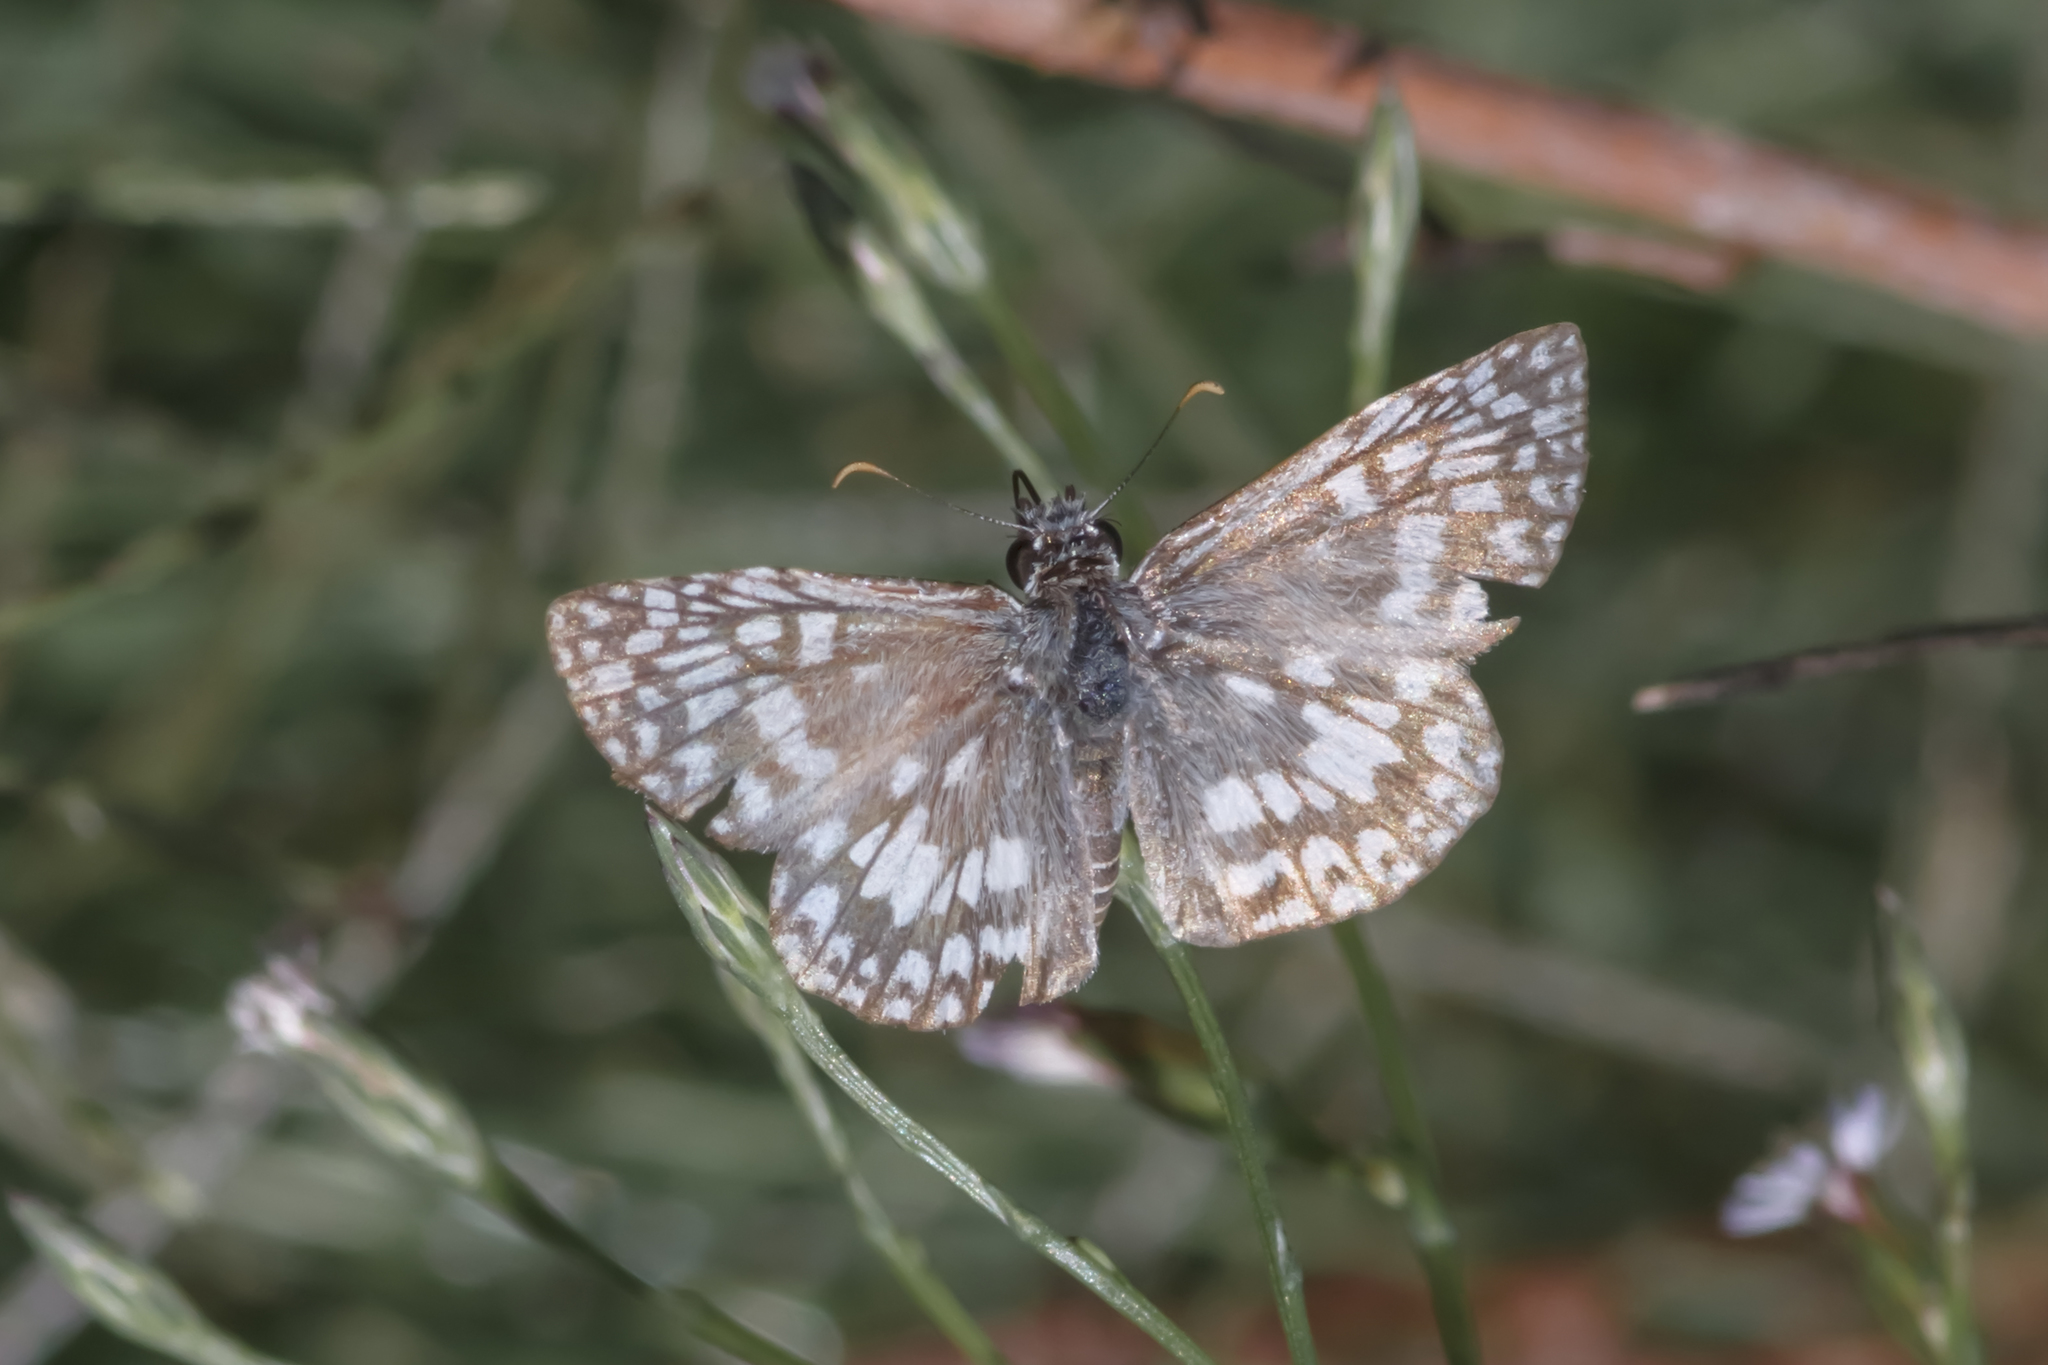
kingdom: Animalia
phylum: Arthropoda
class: Insecta
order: Lepidoptera
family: Hesperiidae
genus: Pyrgus
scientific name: Pyrgus oileus
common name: Tropical checkered-skipper
